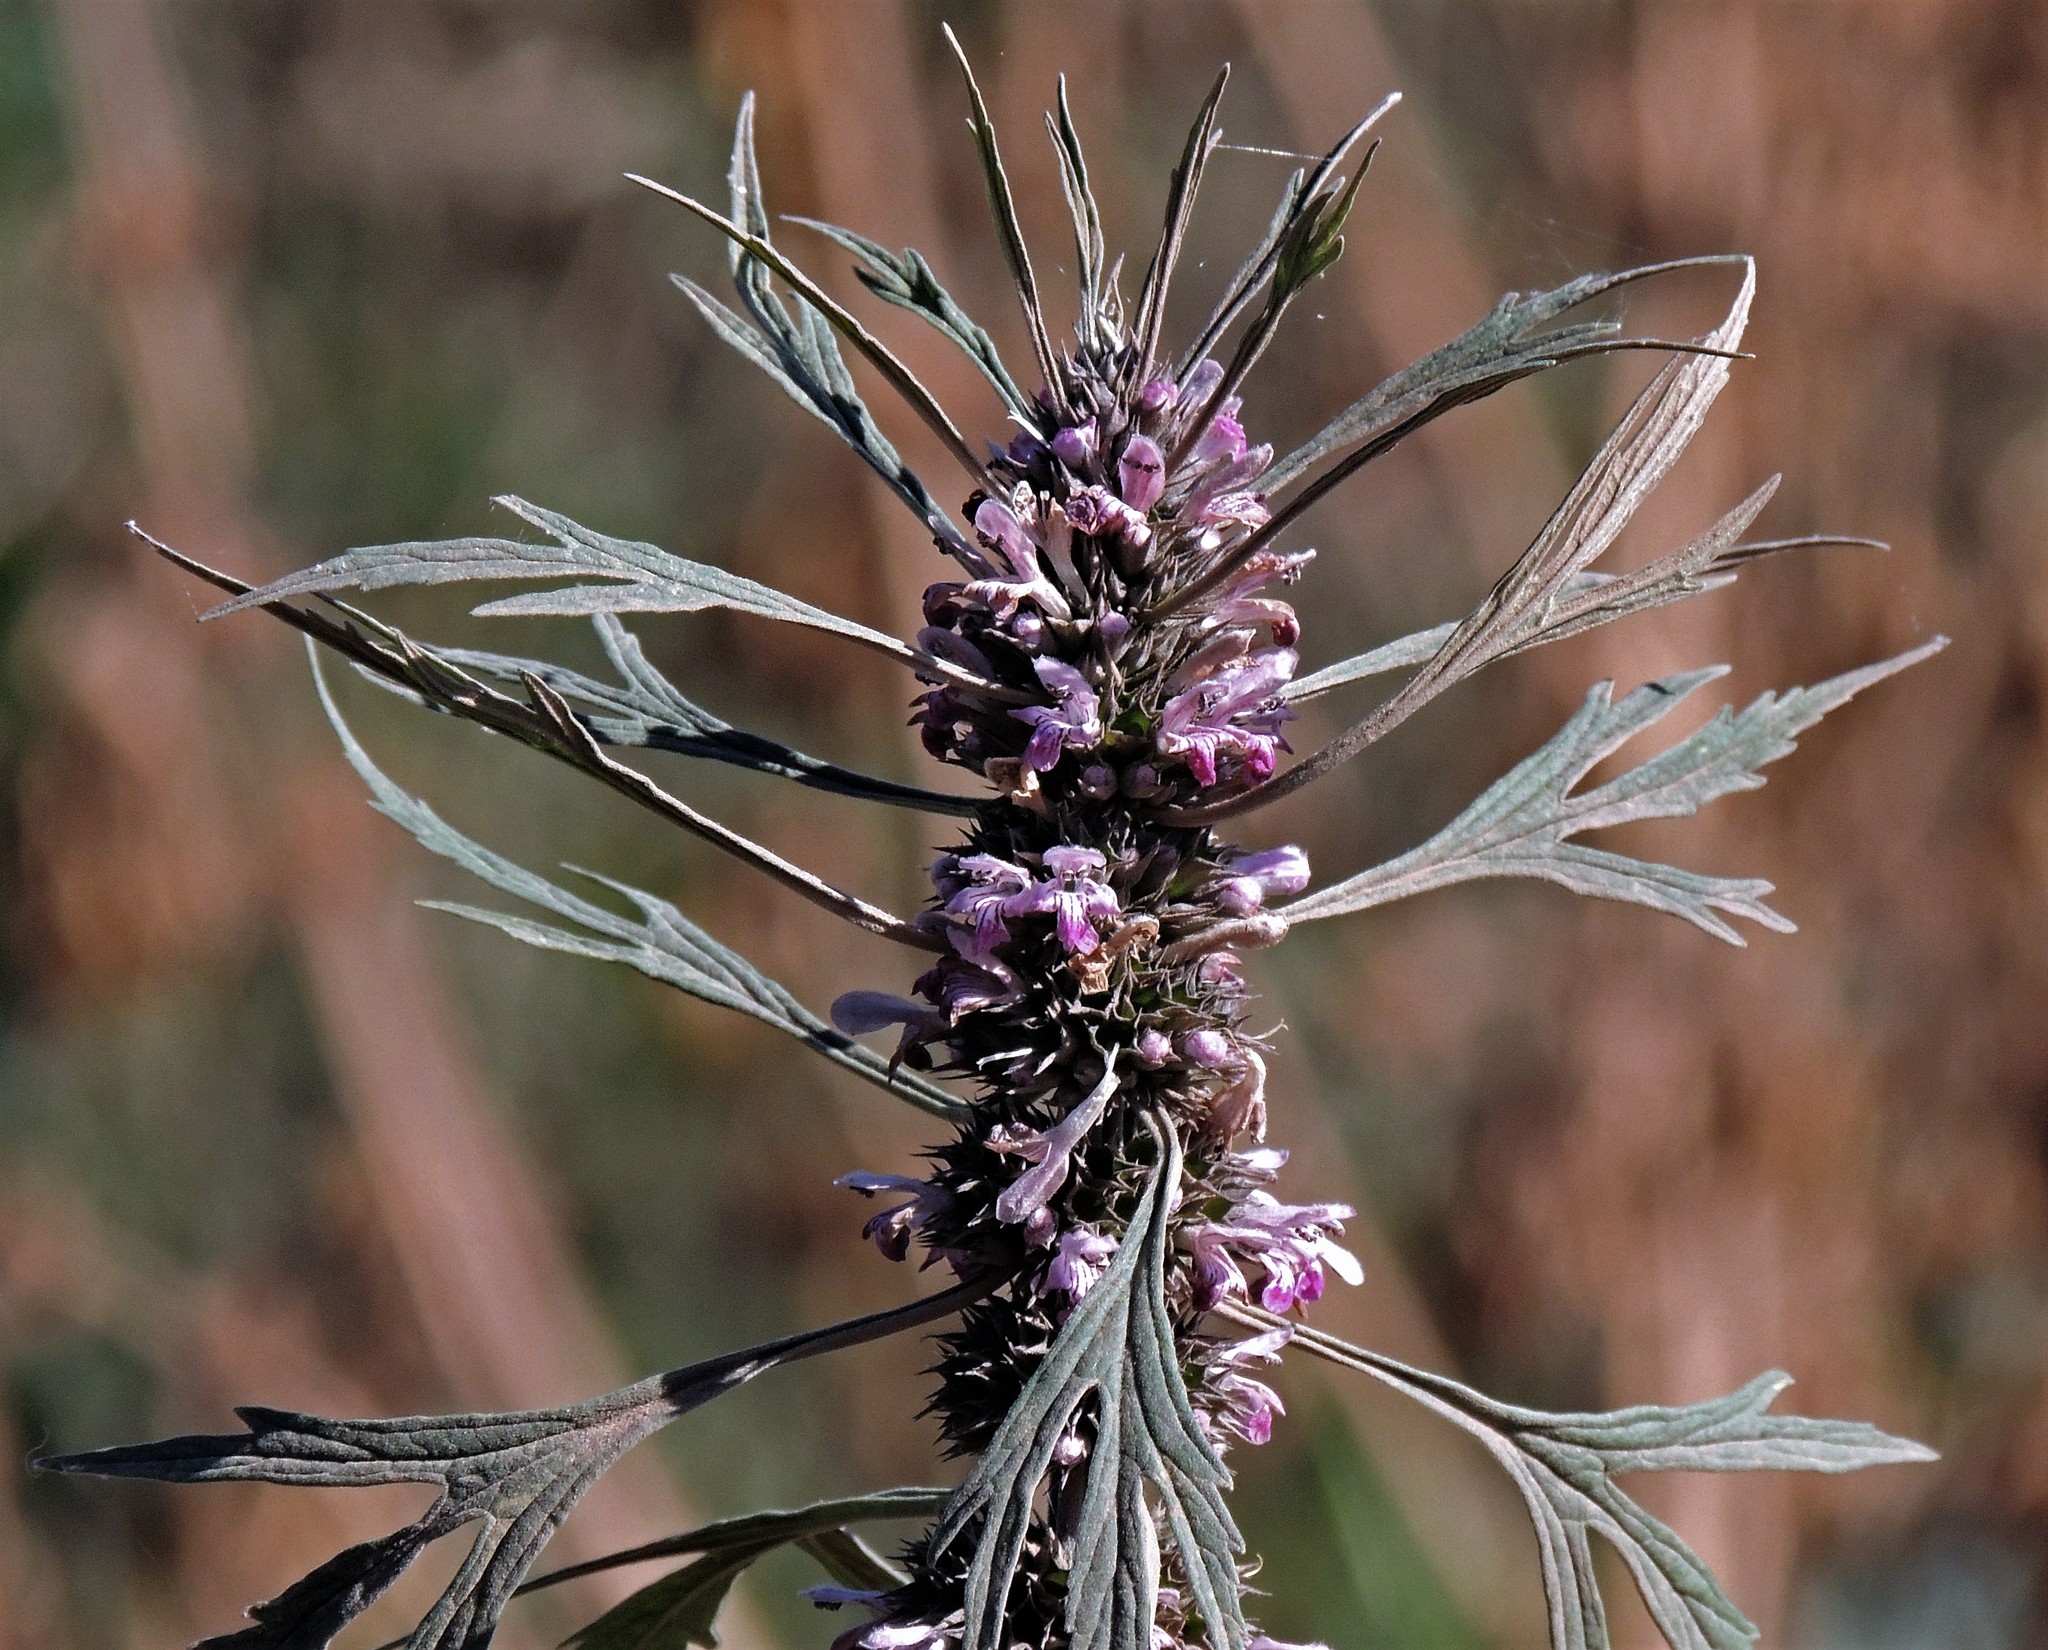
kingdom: Plantae
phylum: Tracheophyta
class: Magnoliopsida
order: Lamiales
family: Lamiaceae
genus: Leonurus
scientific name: Leonurus sibiricus
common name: Honeyweed
